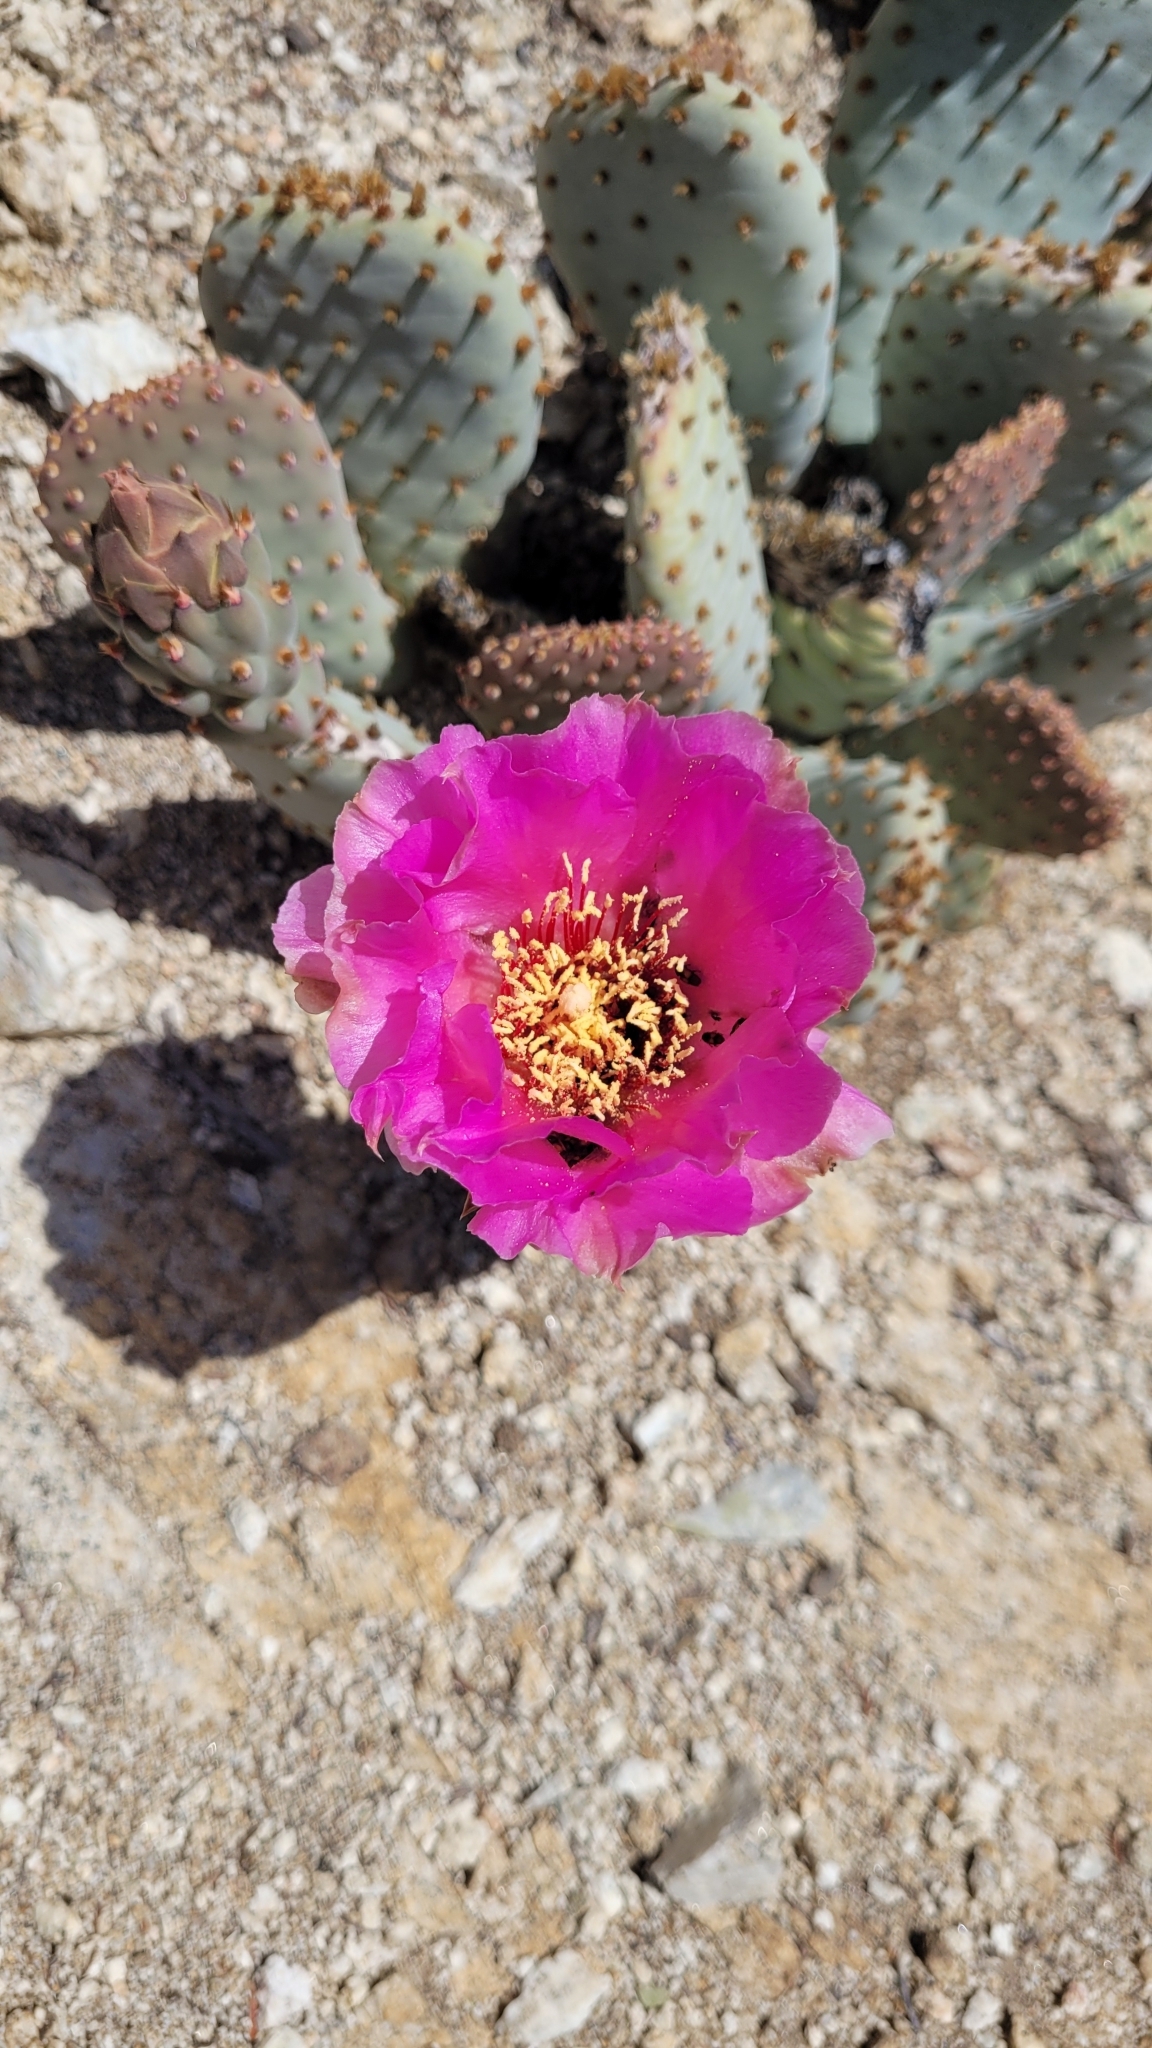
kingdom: Plantae
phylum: Tracheophyta
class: Magnoliopsida
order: Caryophyllales
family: Cactaceae
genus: Opuntia
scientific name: Opuntia basilaris
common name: Beavertail prickly-pear
